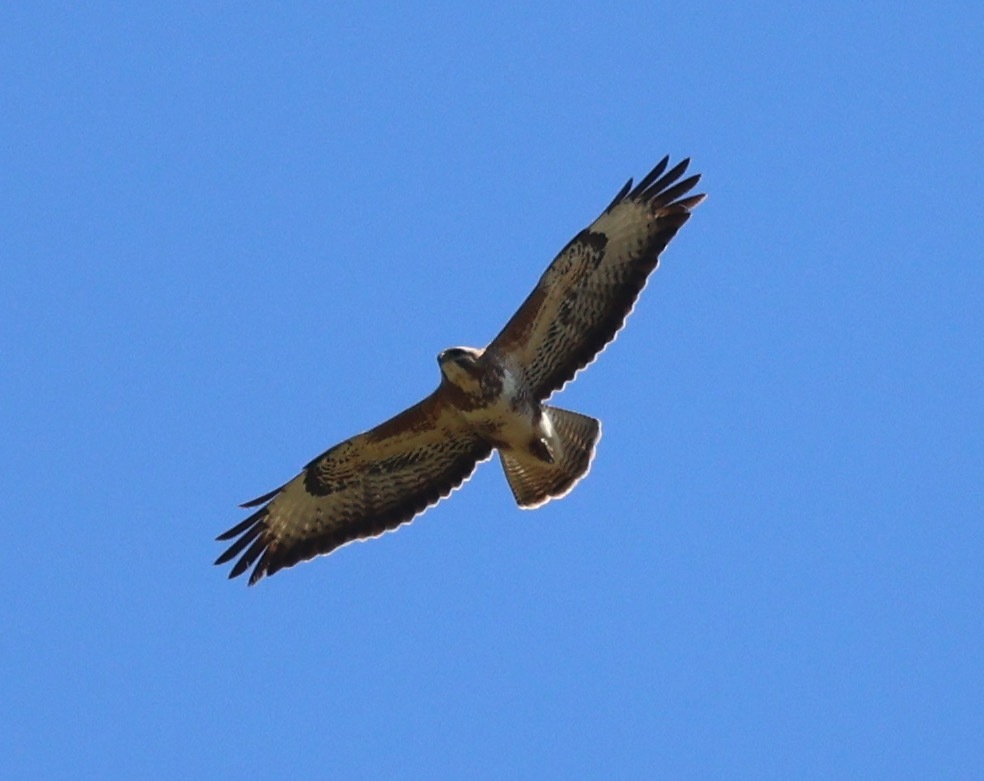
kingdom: Animalia
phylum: Chordata
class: Aves
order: Accipitriformes
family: Accipitridae
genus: Buteo
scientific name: Buteo buteo
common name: Common buzzard
